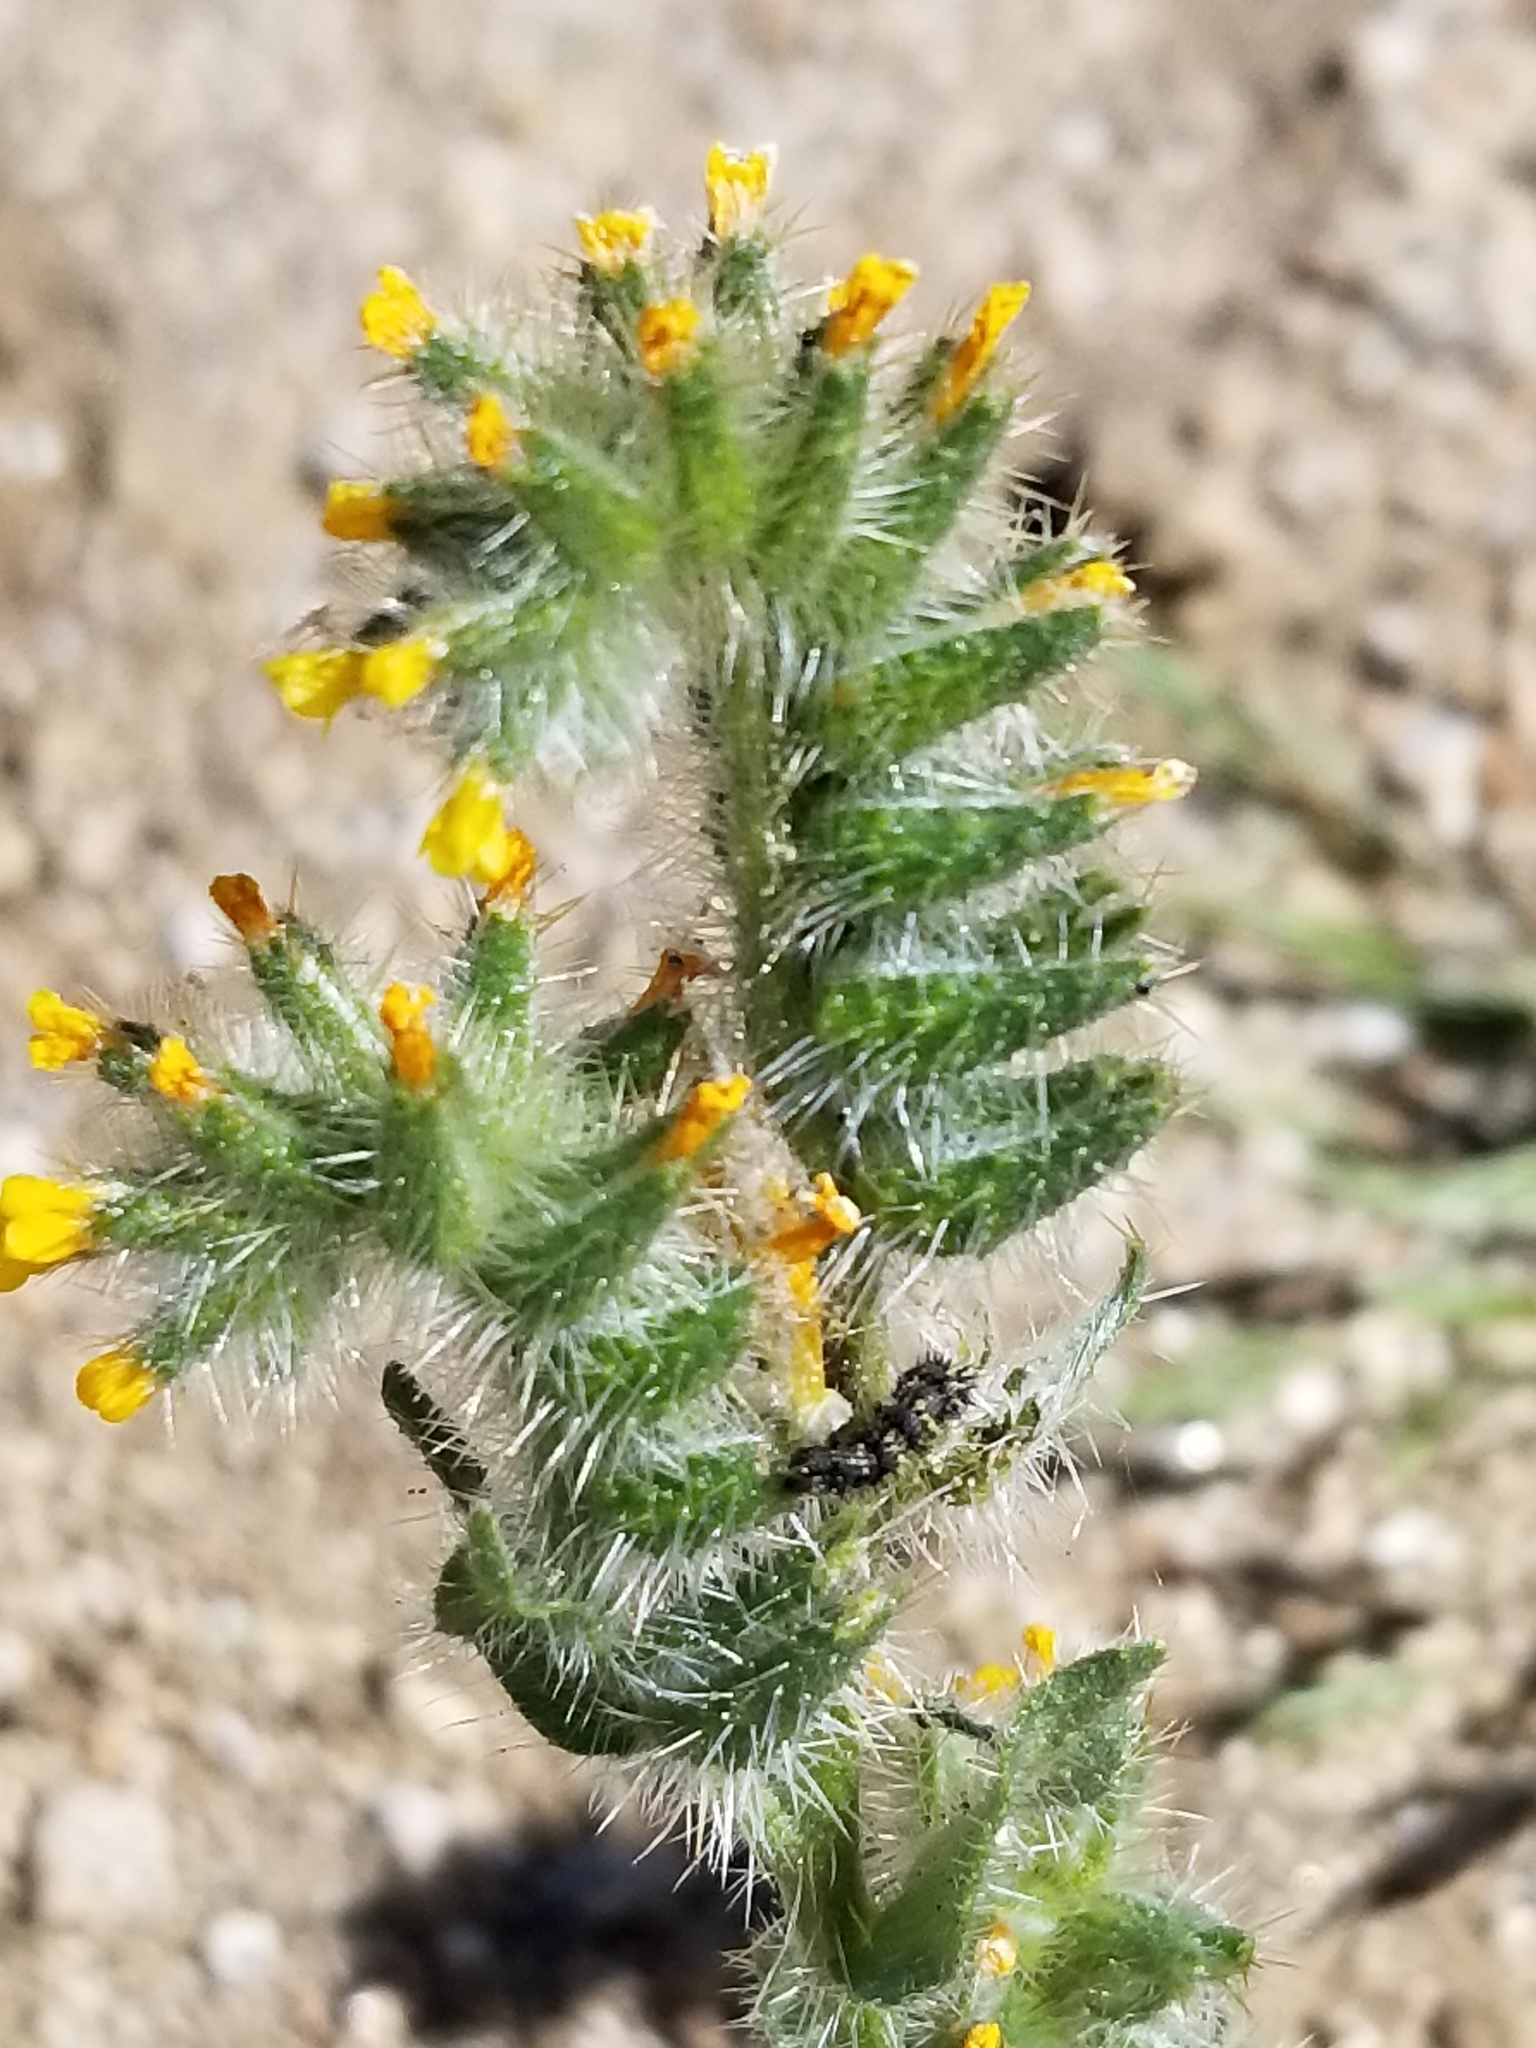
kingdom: Plantae
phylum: Tracheophyta
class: Magnoliopsida
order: Boraginales
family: Boraginaceae
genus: Amsinckia
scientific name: Amsinckia tessellata
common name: Tessellate fiddleneck
